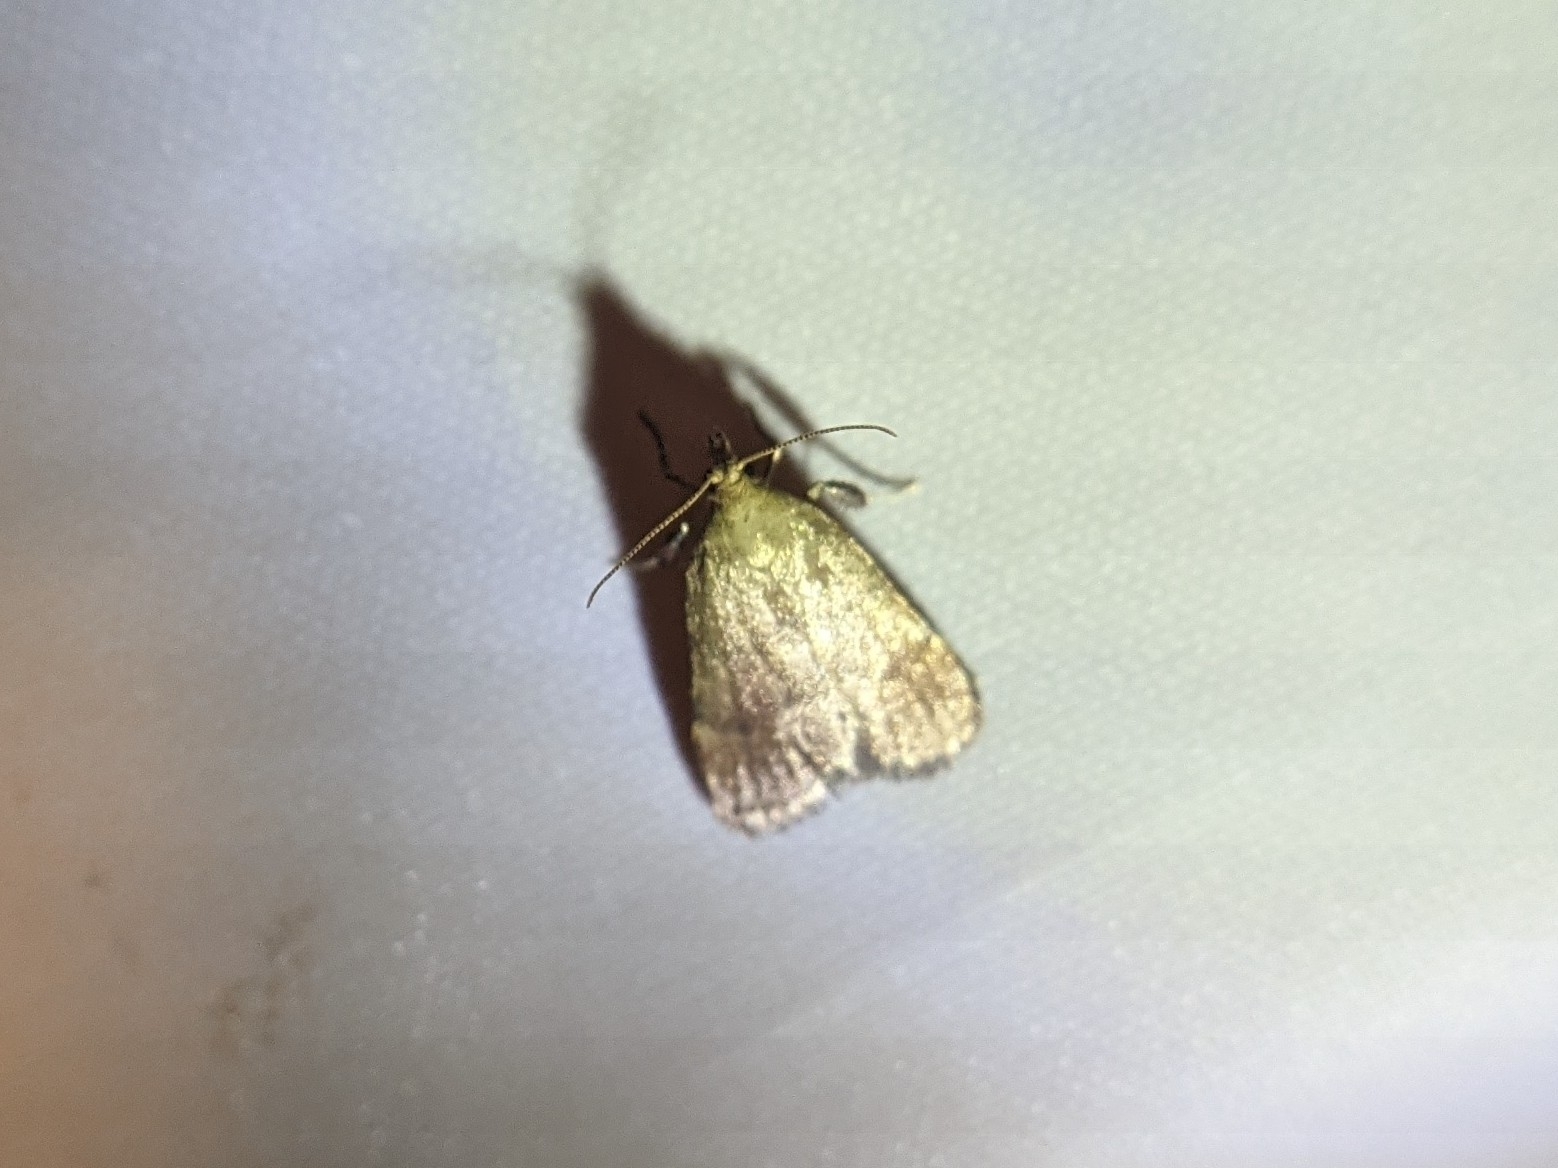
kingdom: Animalia
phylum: Arthropoda
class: Insecta
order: Lepidoptera
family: Pyralidae
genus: Condylolomia
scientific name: Condylolomia participialis
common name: Drab condylolomia moth
